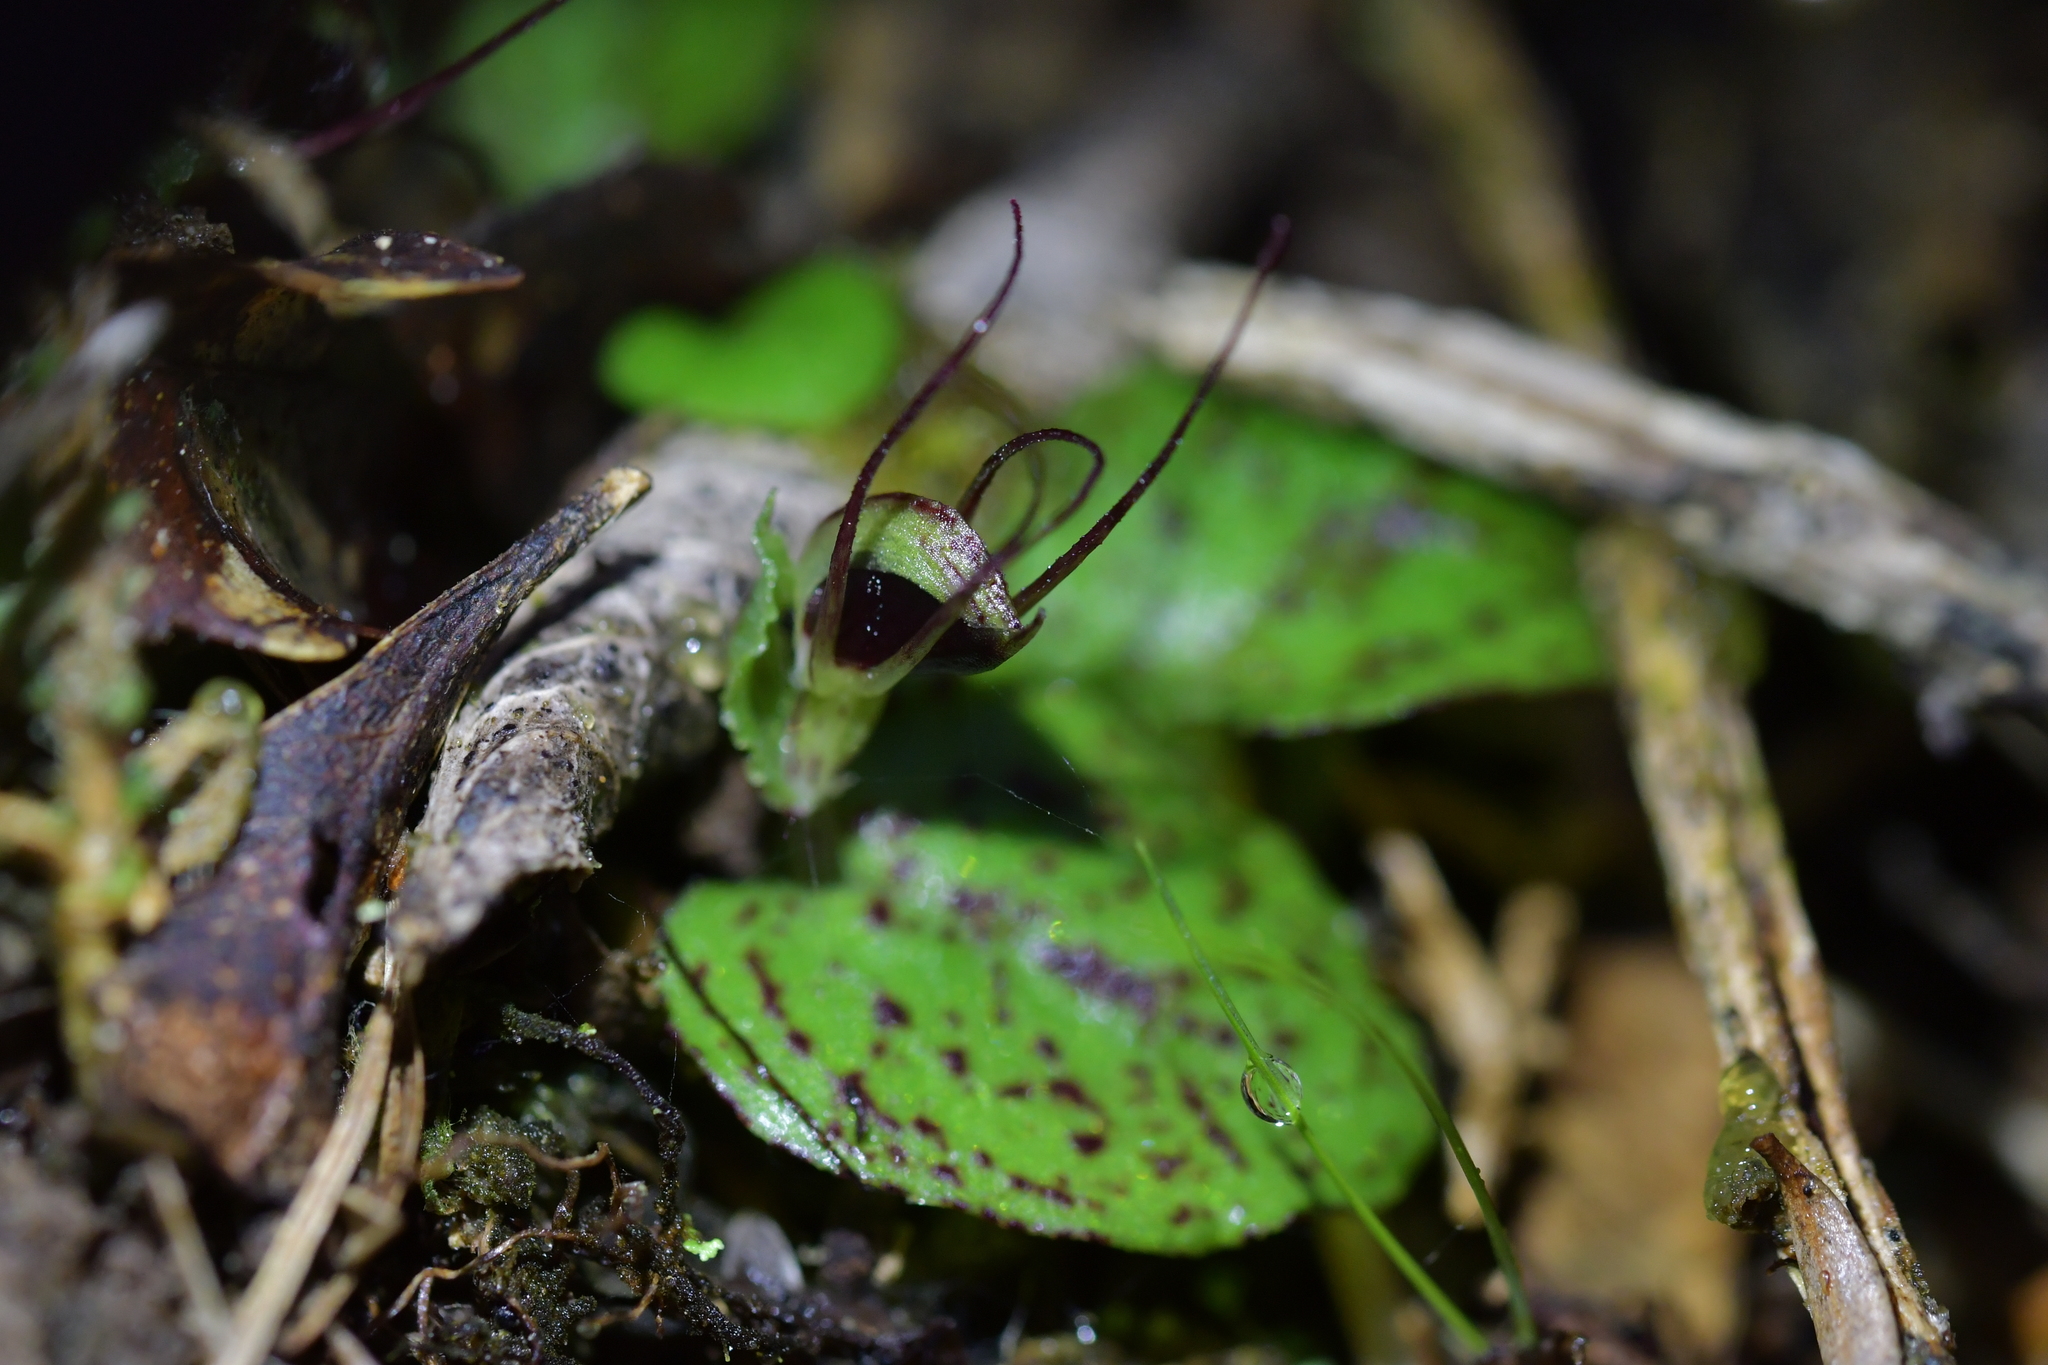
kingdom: Plantae
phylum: Tracheophyta
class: Liliopsida
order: Asparagales
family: Orchidaceae
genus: Corybas
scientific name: Corybas oblongus
